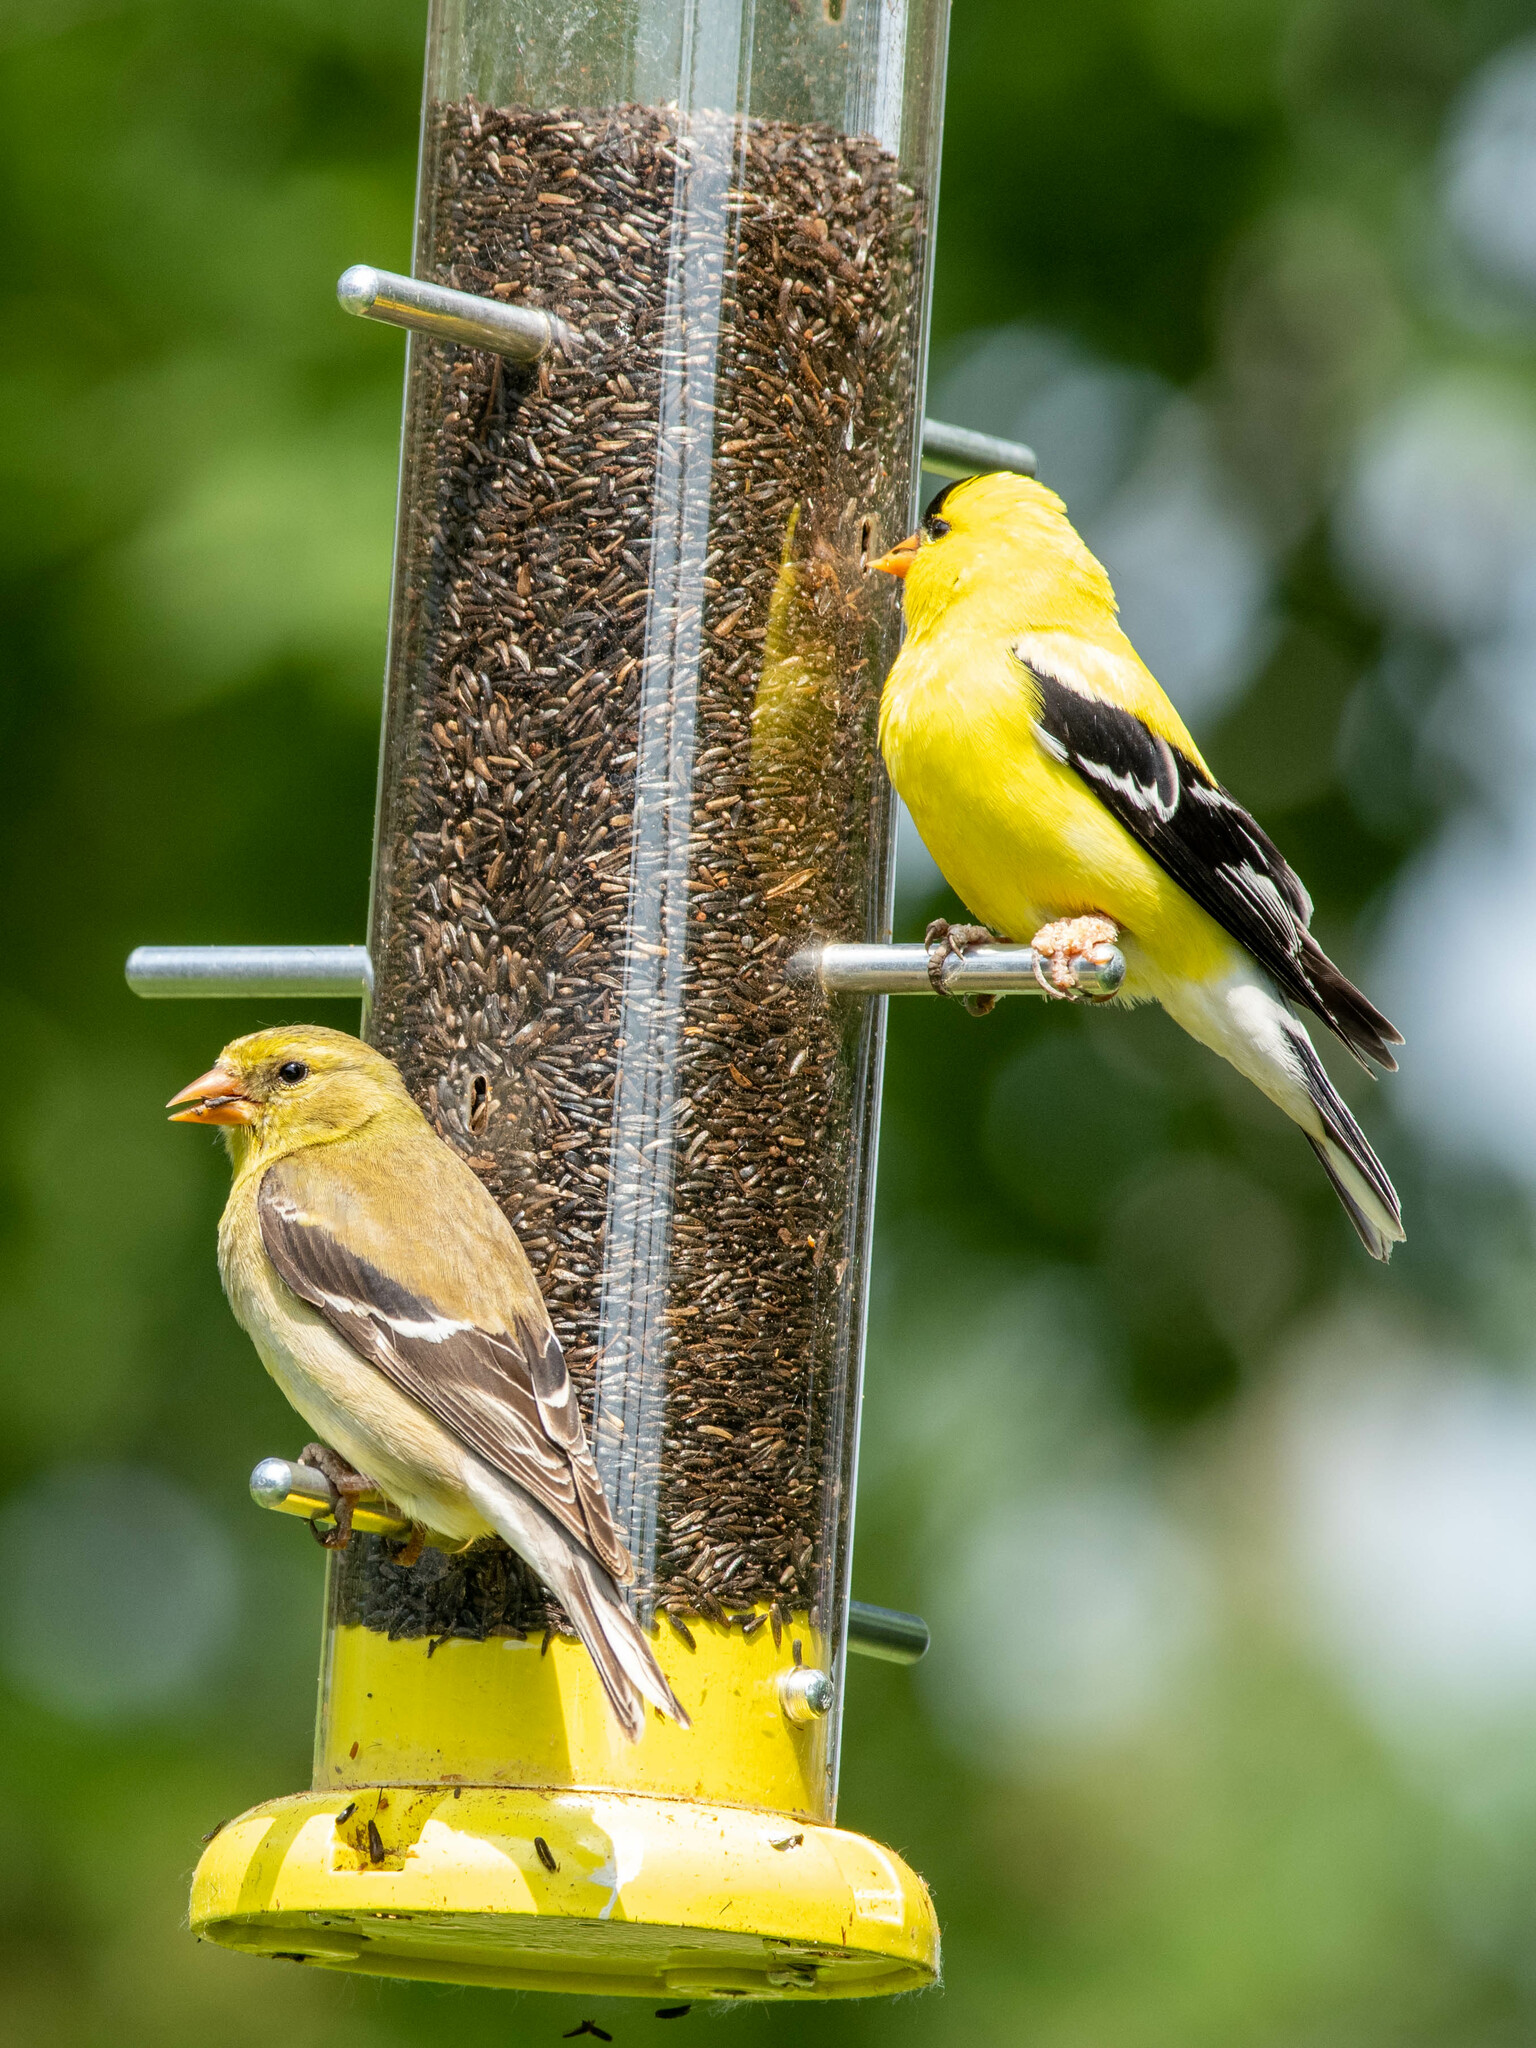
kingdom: Animalia
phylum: Chordata
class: Aves
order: Passeriformes
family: Fringillidae
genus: Spinus
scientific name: Spinus tristis
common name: American goldfinch
